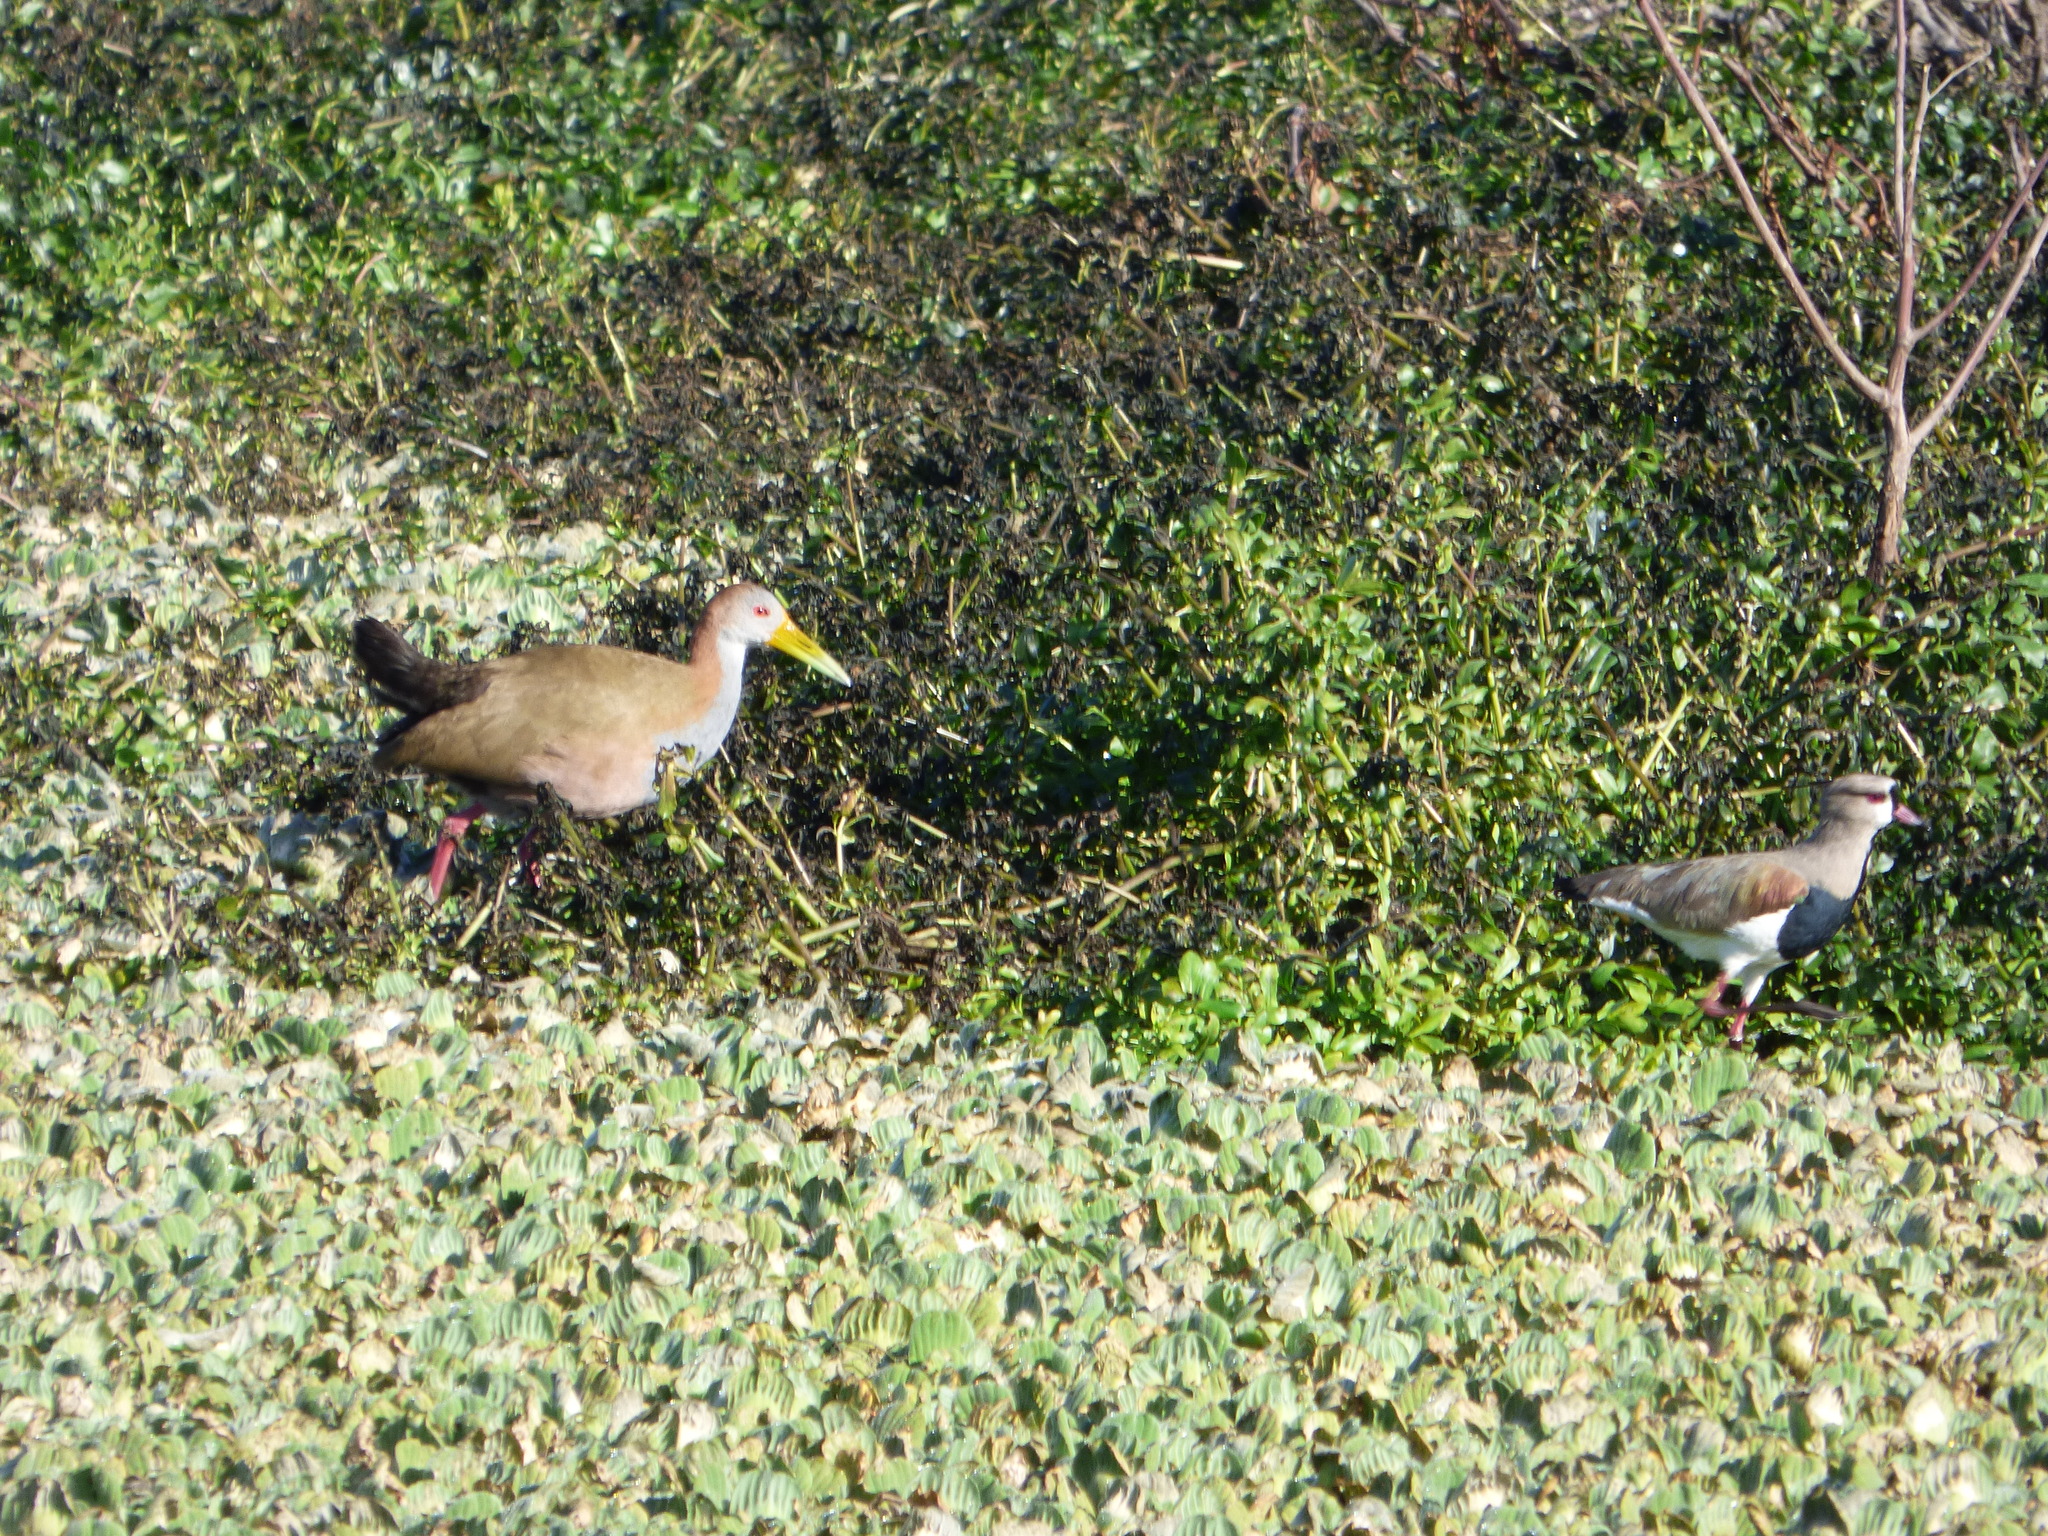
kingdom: Animalia
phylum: Chordata
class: Aves
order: Gruiformes
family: Rallidae
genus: Aramides
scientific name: Aramides ypecaha
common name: Giant wood rail
